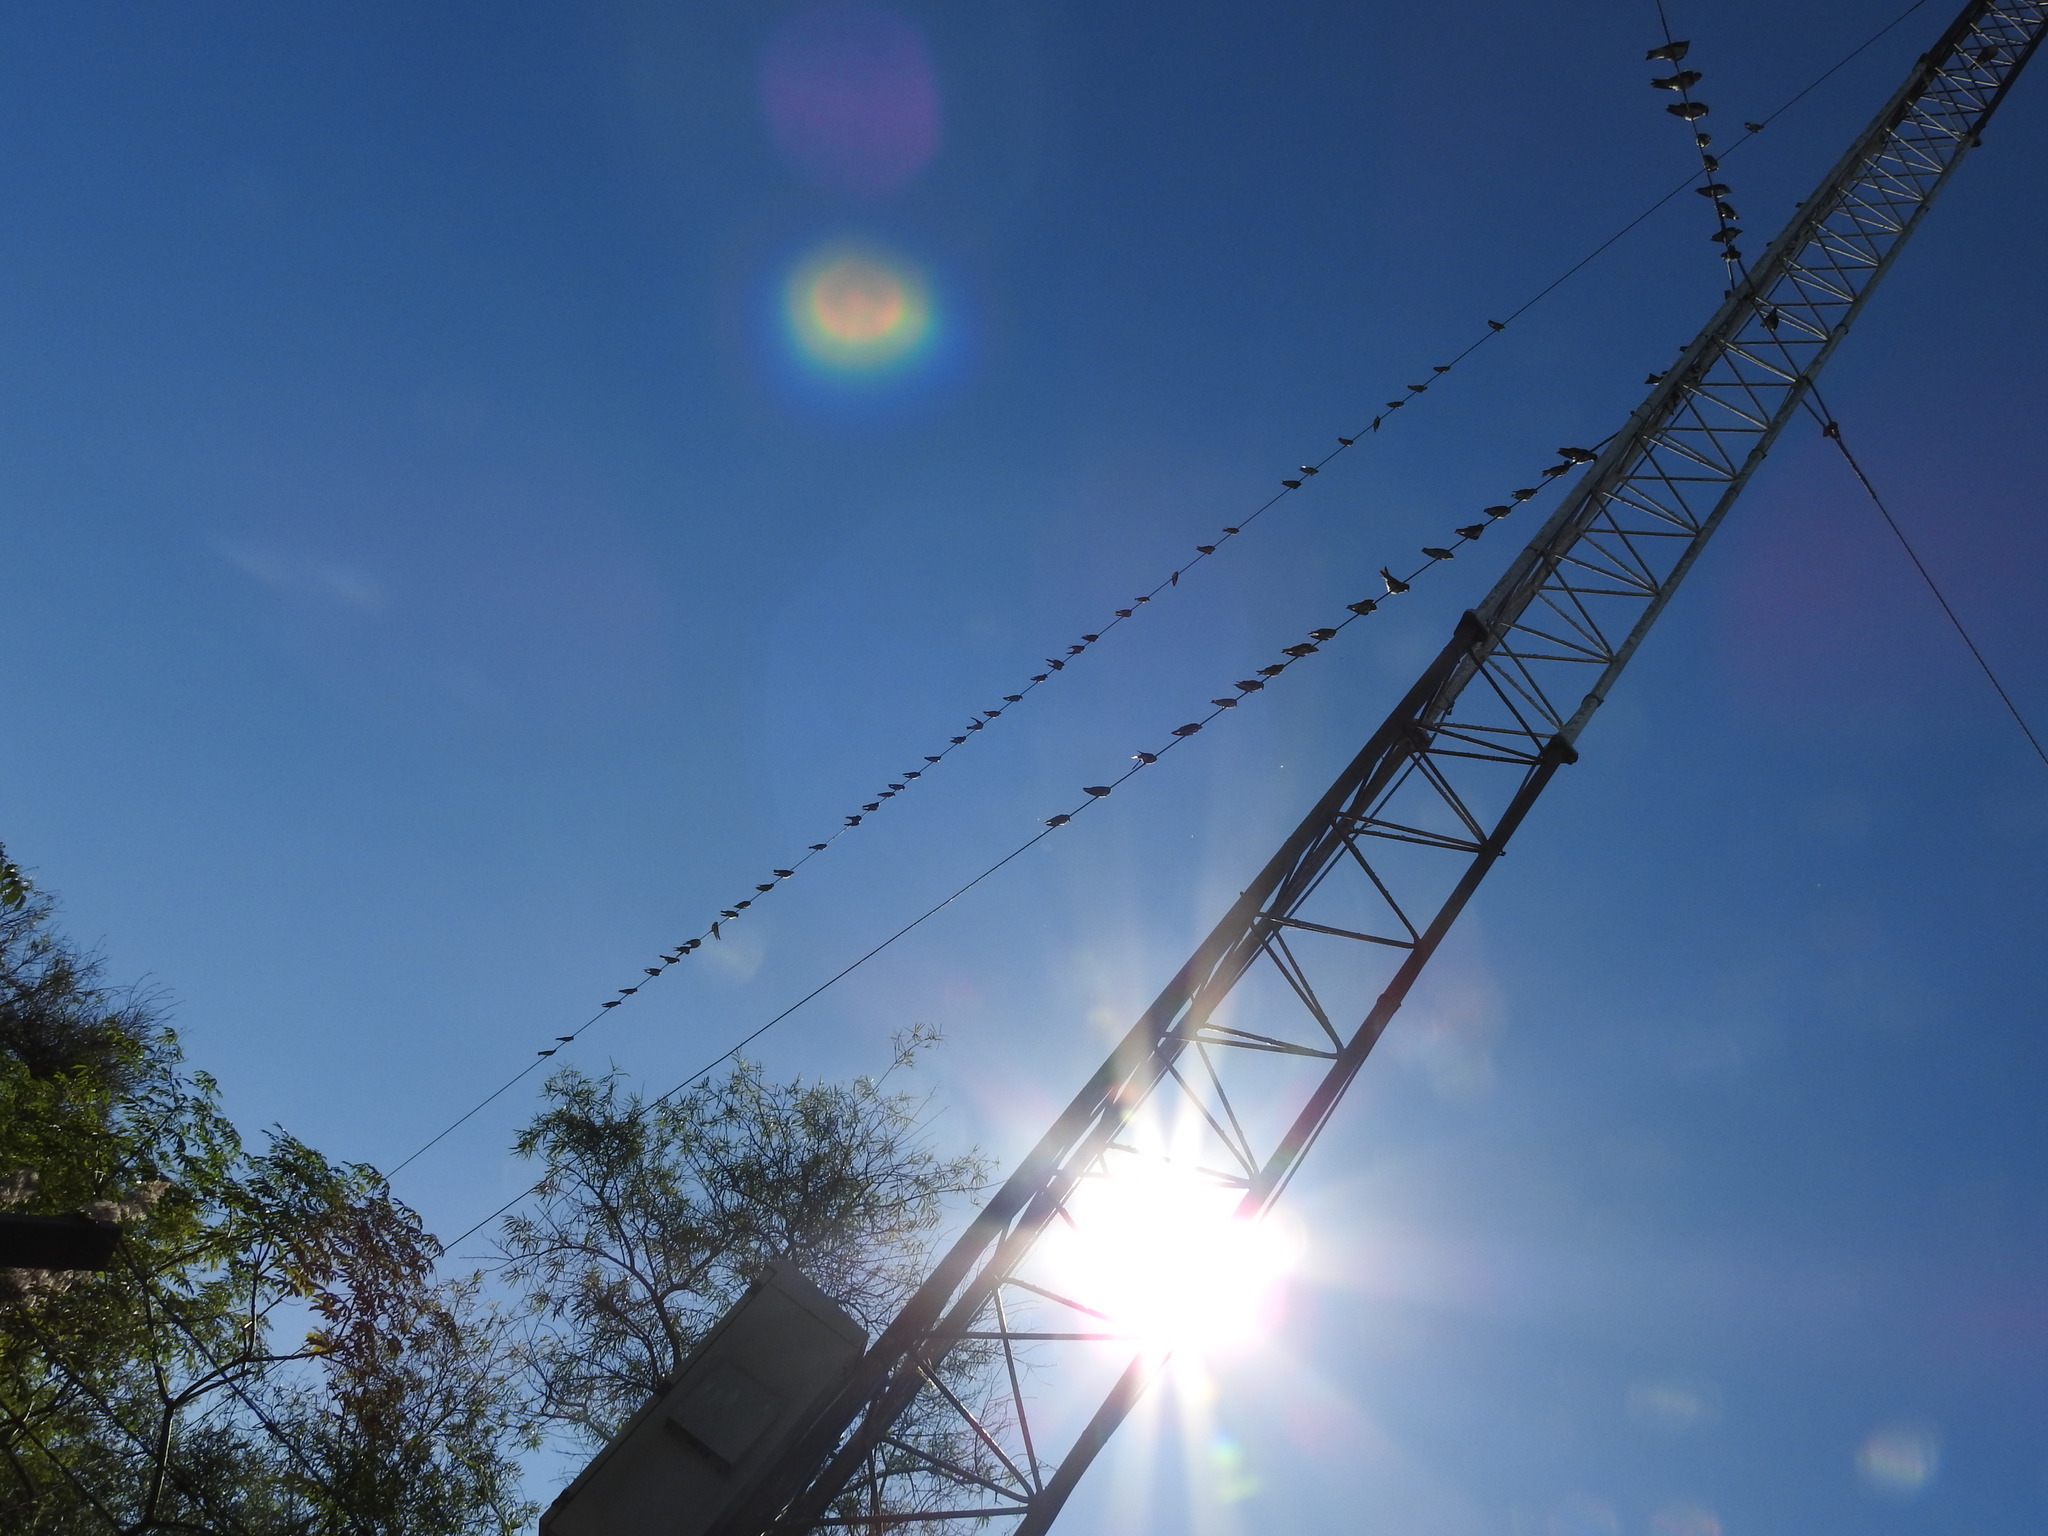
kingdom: Animalia
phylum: Chordata
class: Aves
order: Passeriformes
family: Hirundinidae
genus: Progne
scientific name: Progne tapera
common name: Brown-chested martin
